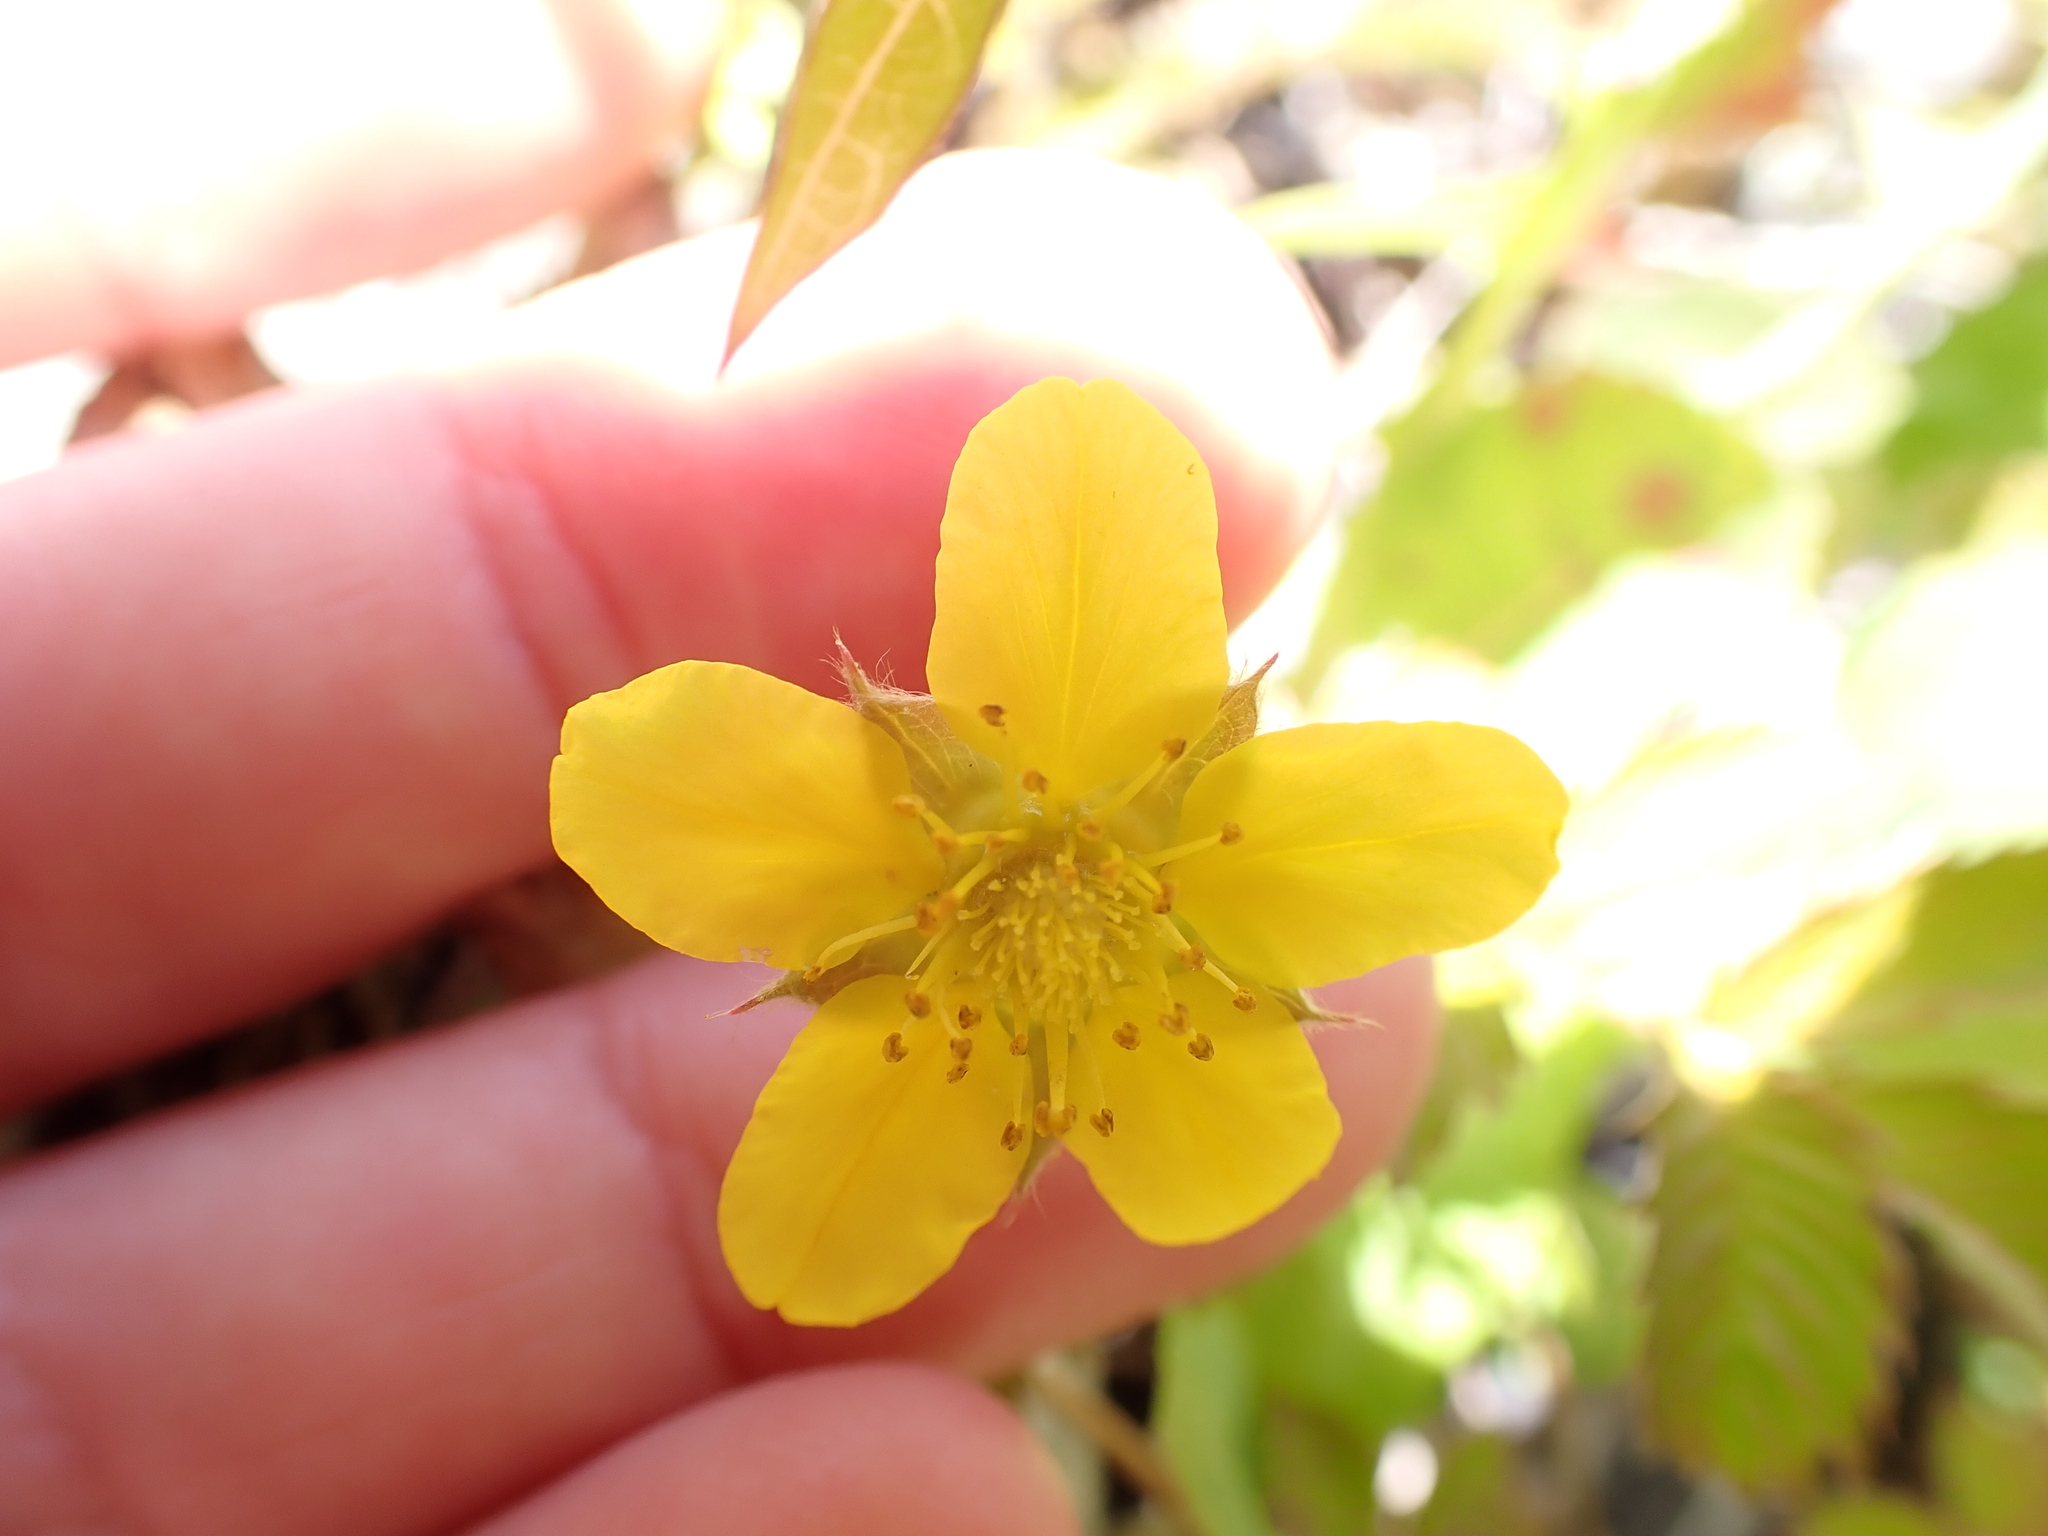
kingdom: Plantae
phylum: Tracheophyta
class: Magnoliopsida
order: Rosales
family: Rosaceae
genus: Argentina
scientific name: Argentina anserinoides
